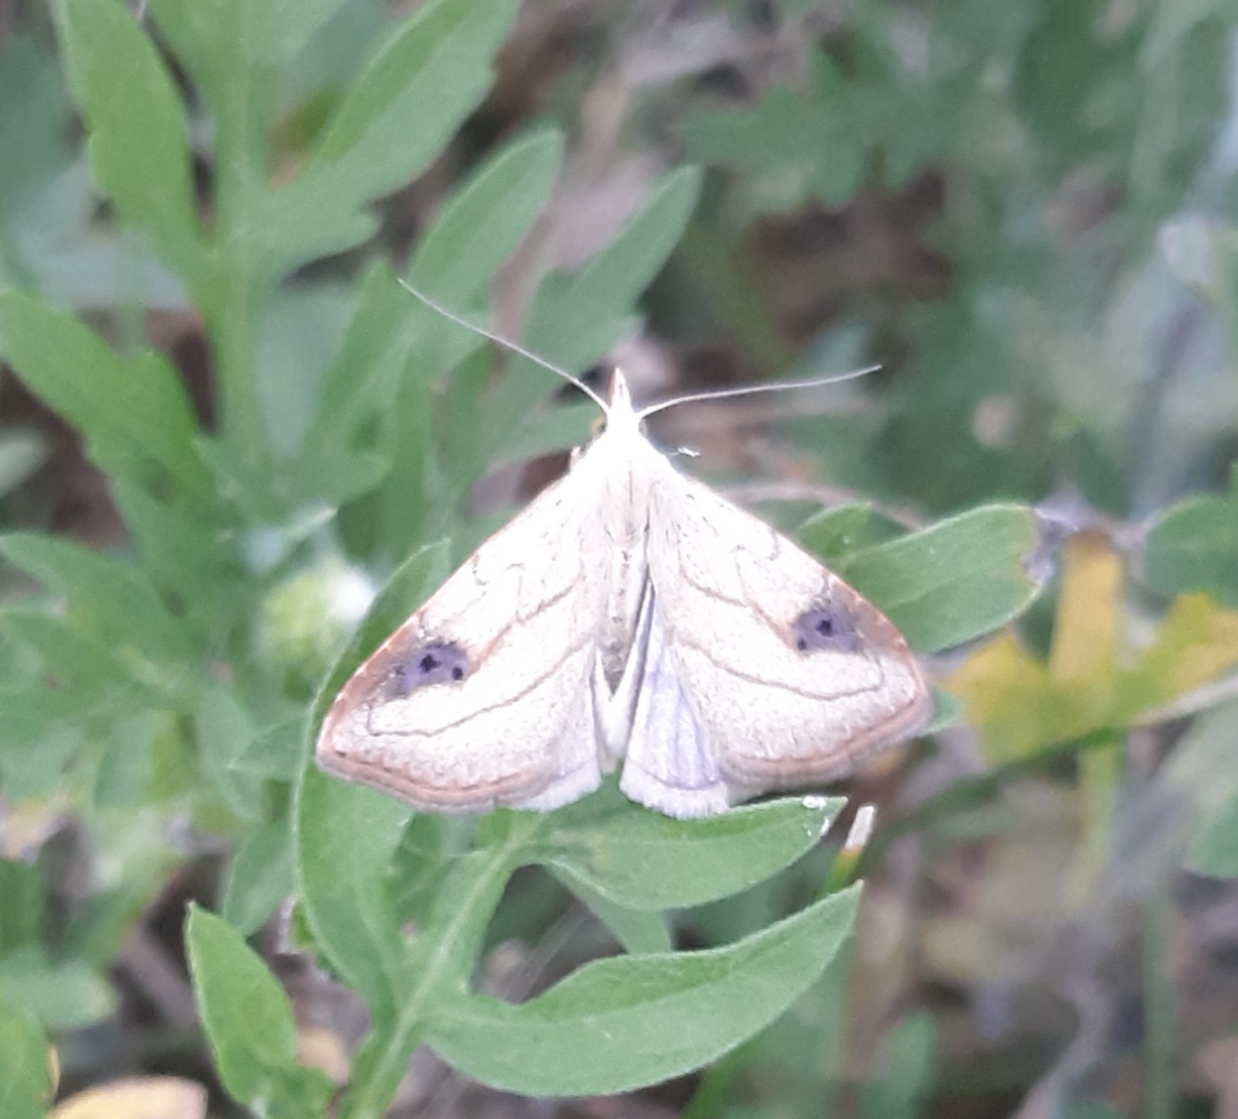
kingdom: Animalia
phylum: Arthropoda
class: Insecta
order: Lepidoptera
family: Erebidae
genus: Rivula
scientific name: Rivula propinqualis
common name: Spotted grass moth
